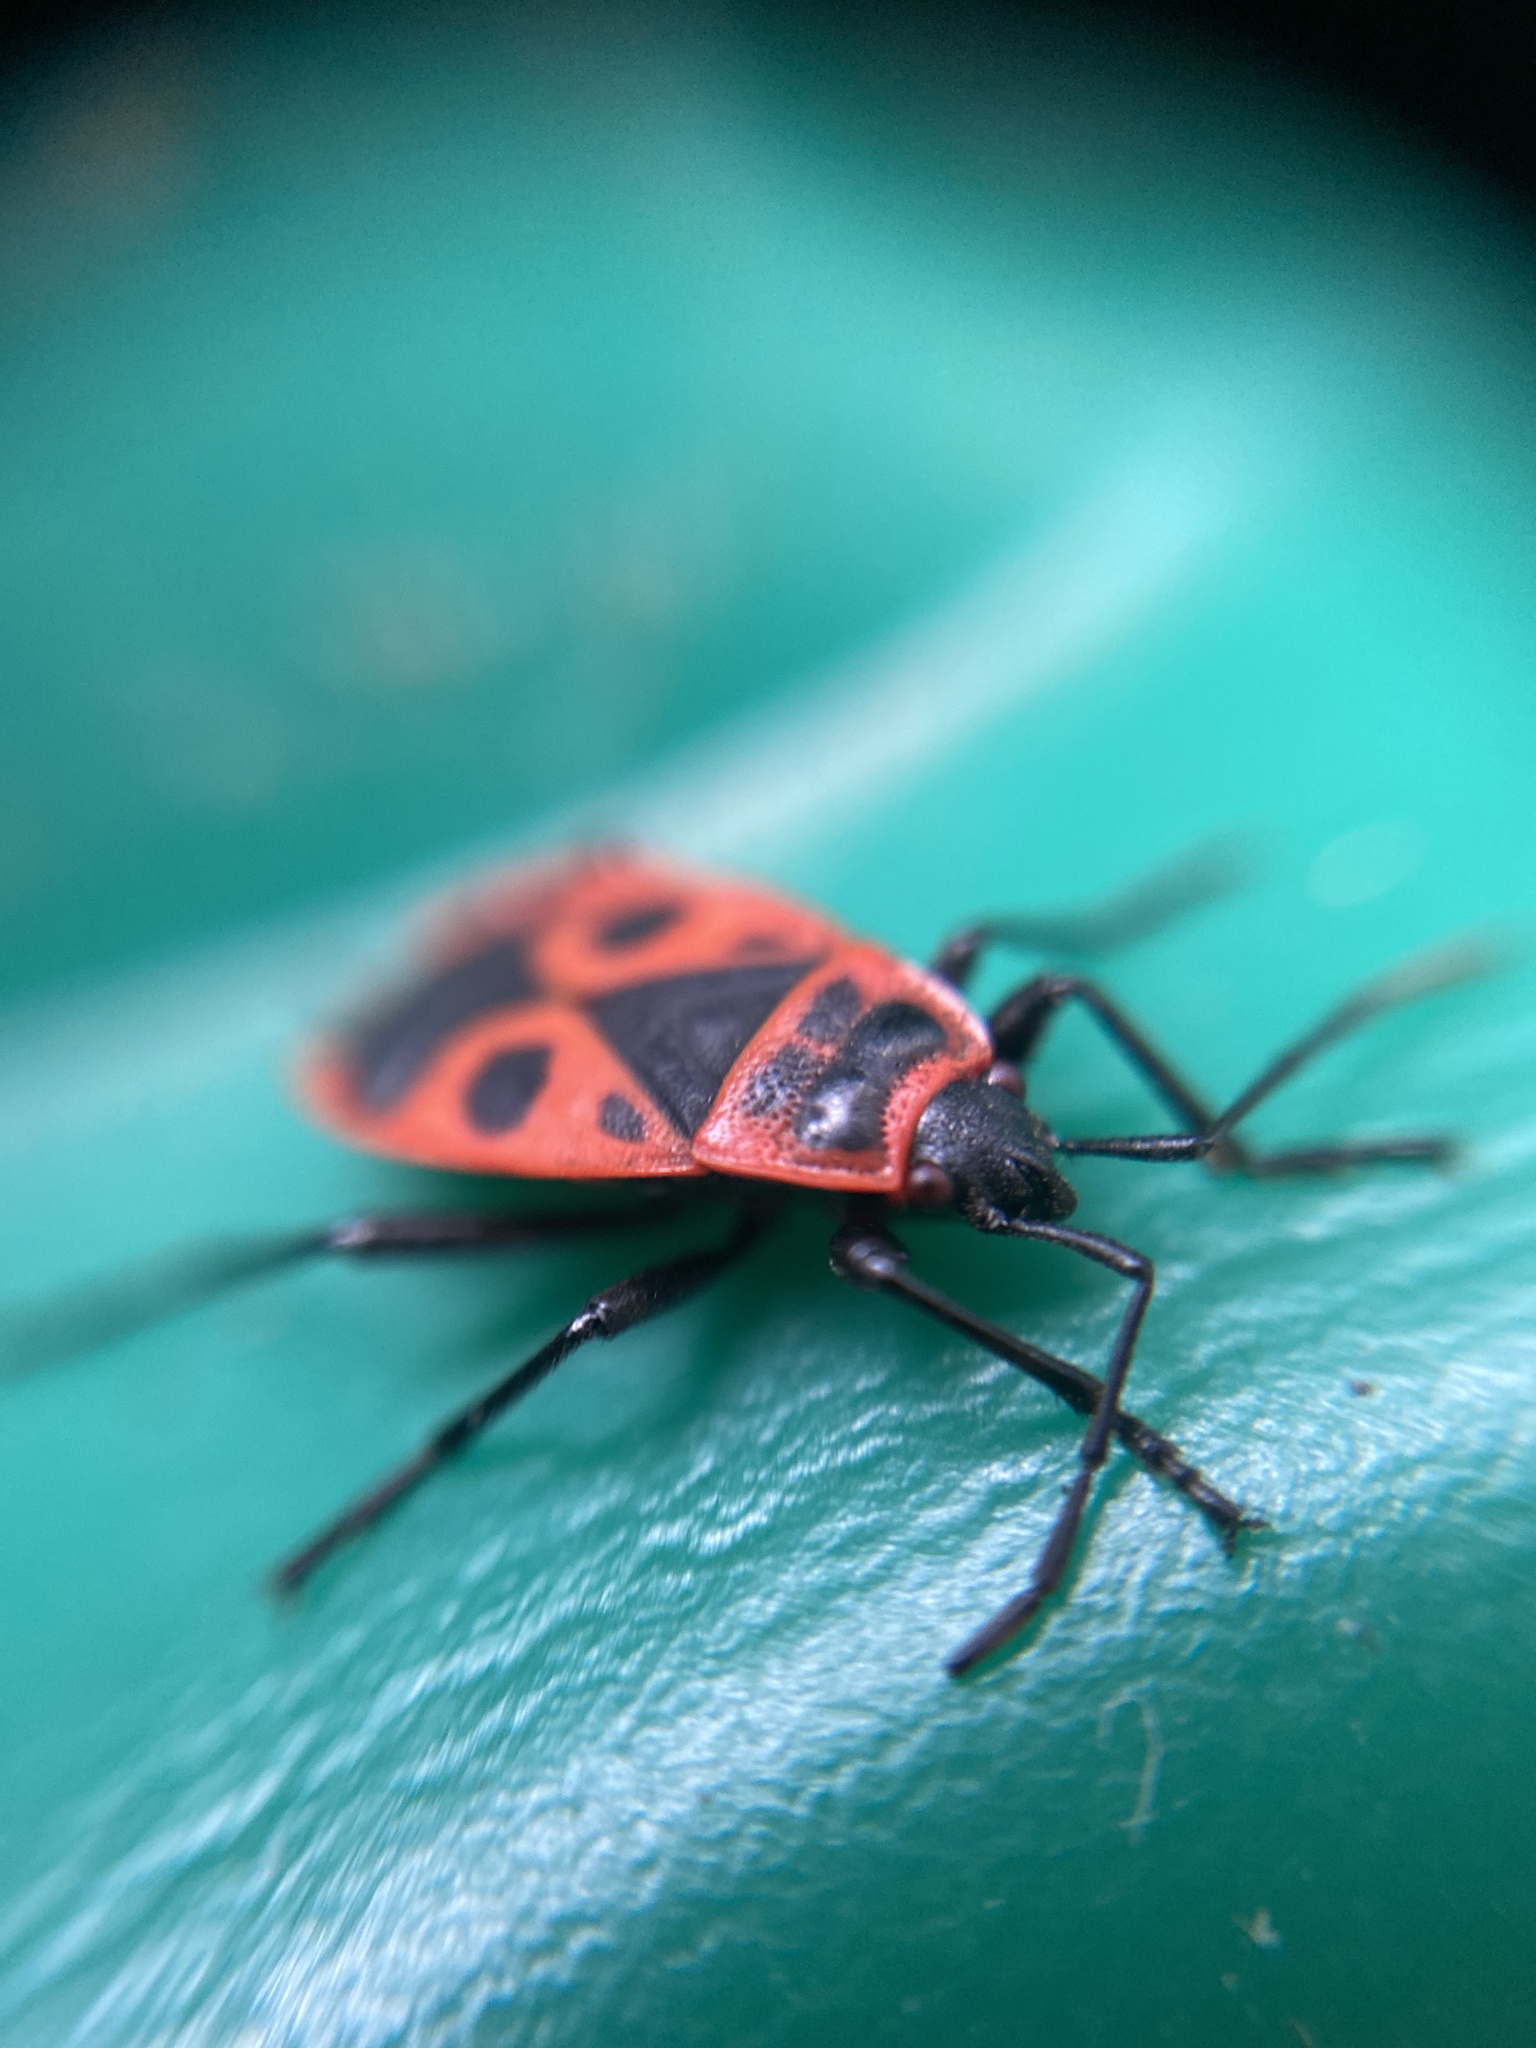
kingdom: Animalia
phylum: Arthropoda
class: Insecta
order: Hemiptera
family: Pyrrhocoridae
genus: Pyrrhocoris
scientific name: Pyrrhocoris apterus
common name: Firebug
